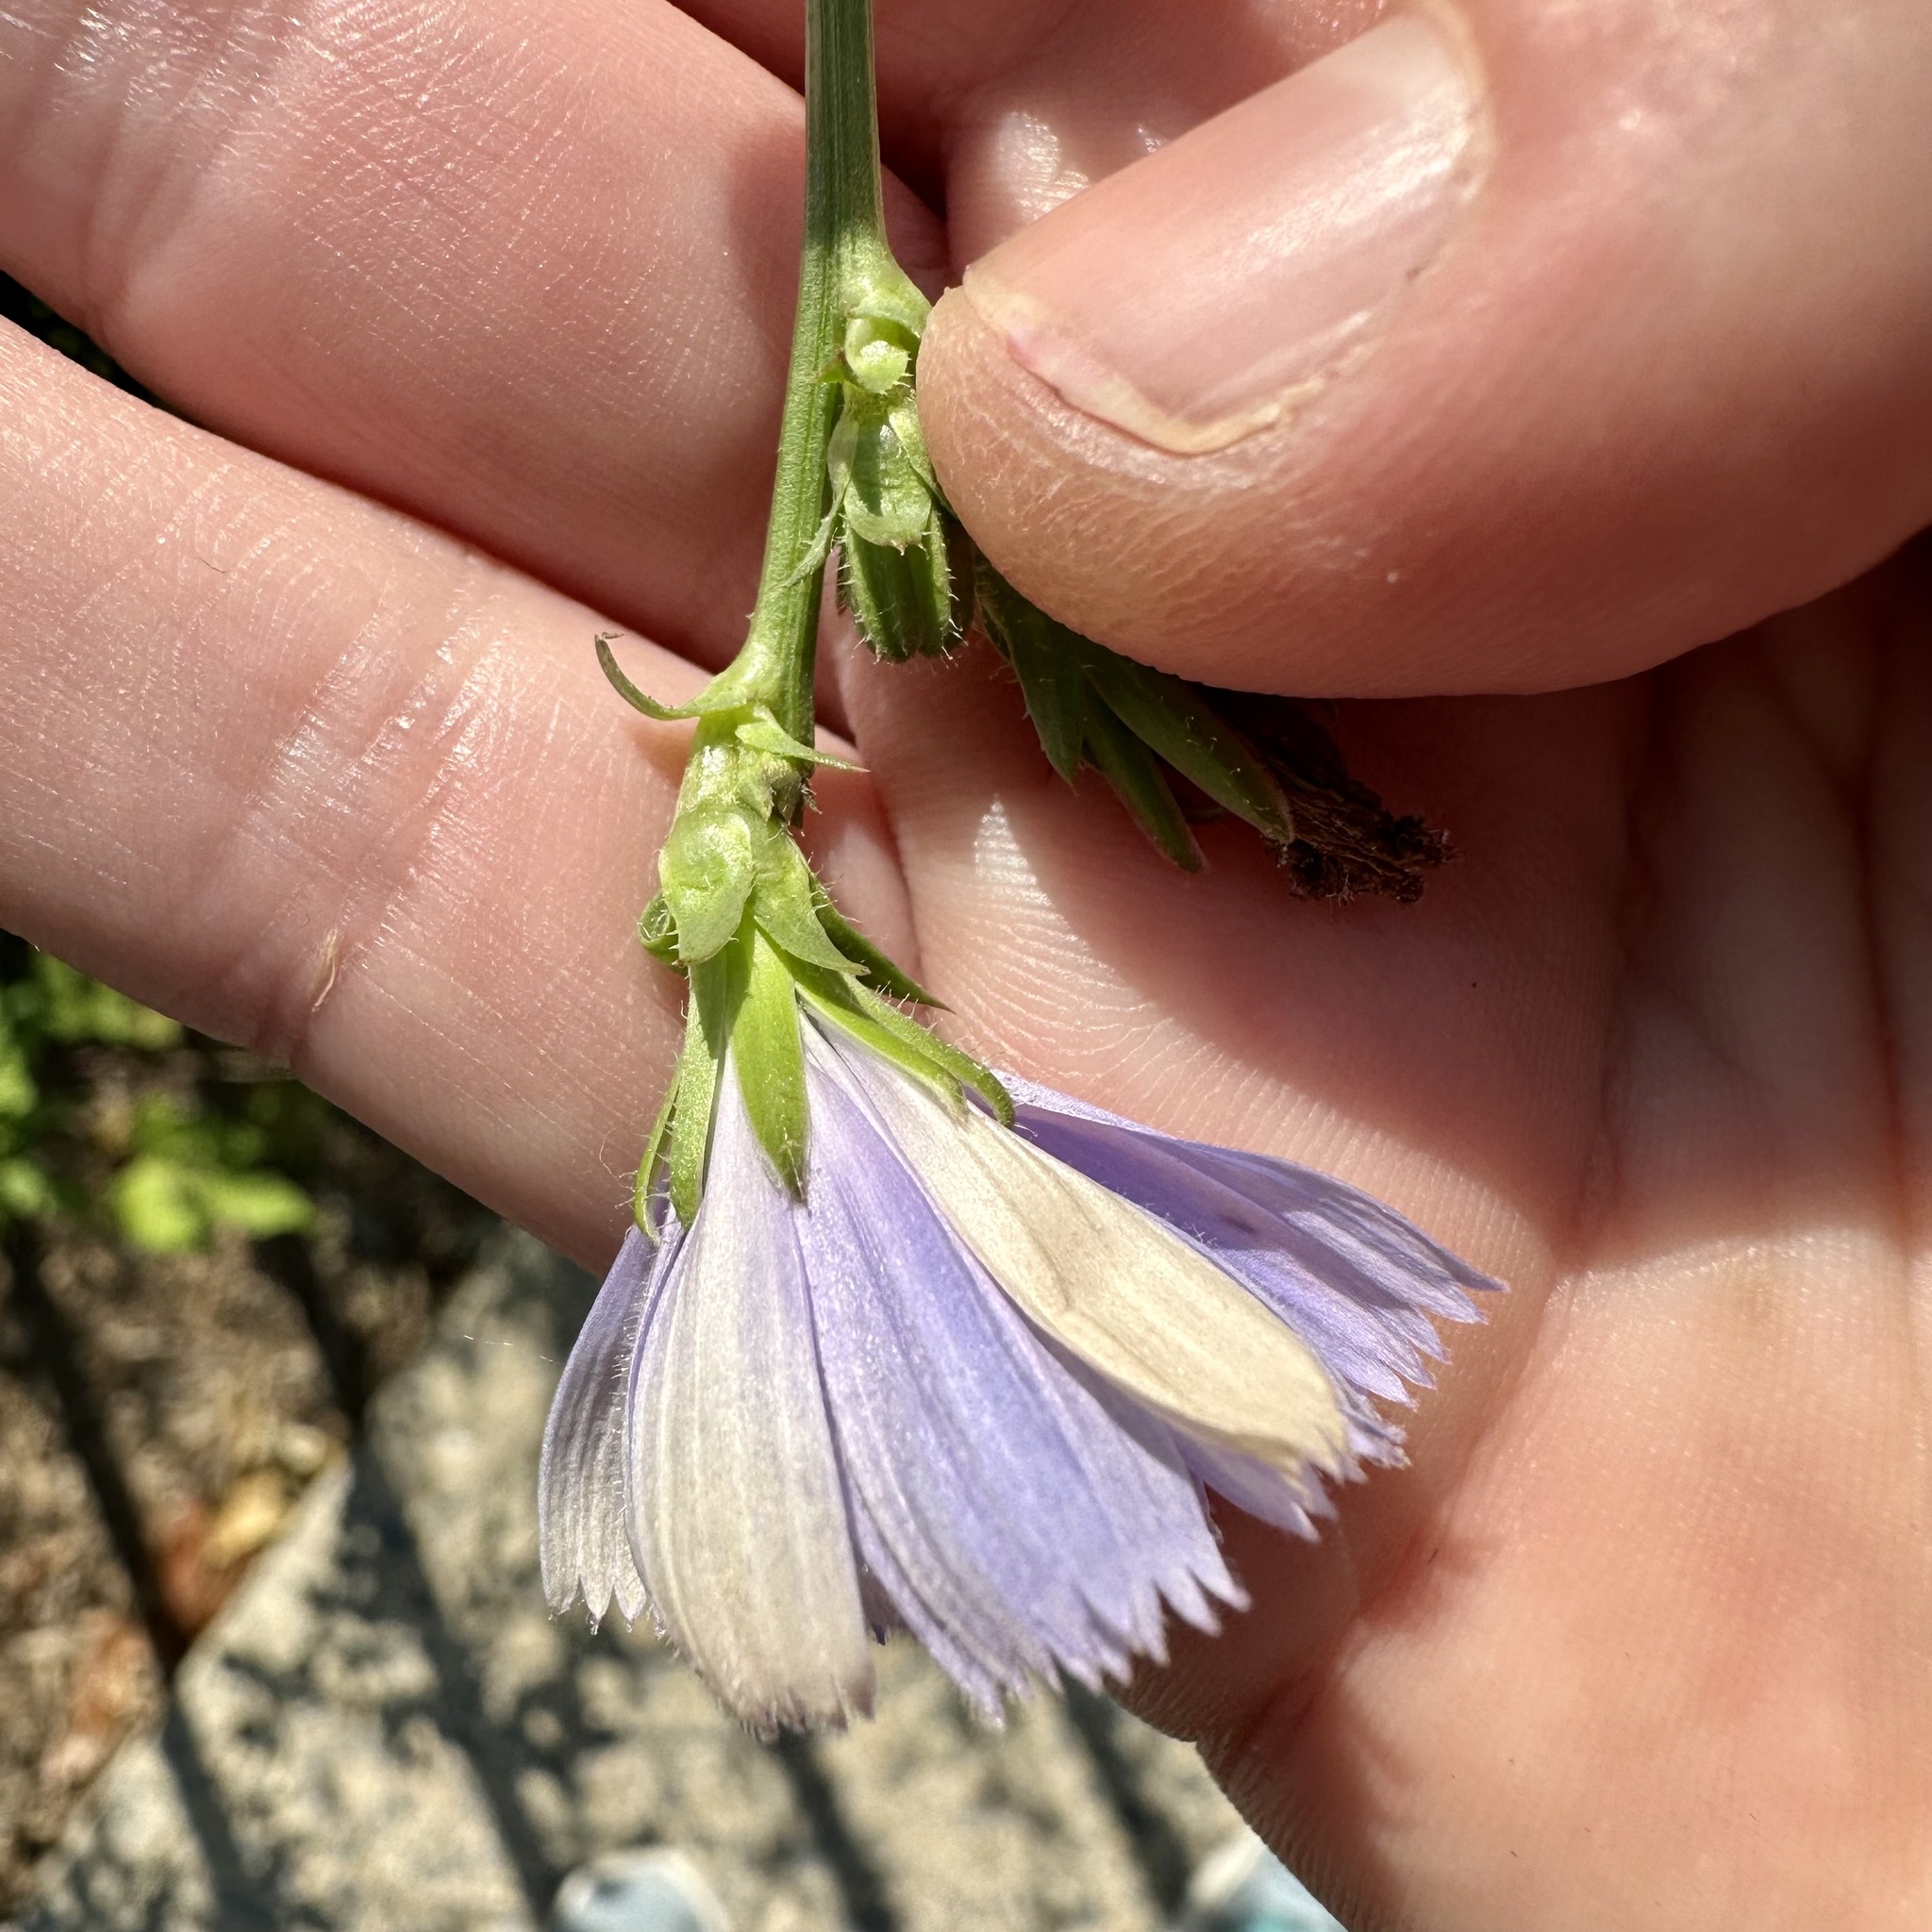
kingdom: Plantae
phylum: Tracheophyta
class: Magnoliopsida
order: Asterales
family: Asteraceae
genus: Cichorium
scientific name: Cichorium intybus
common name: Chicory
